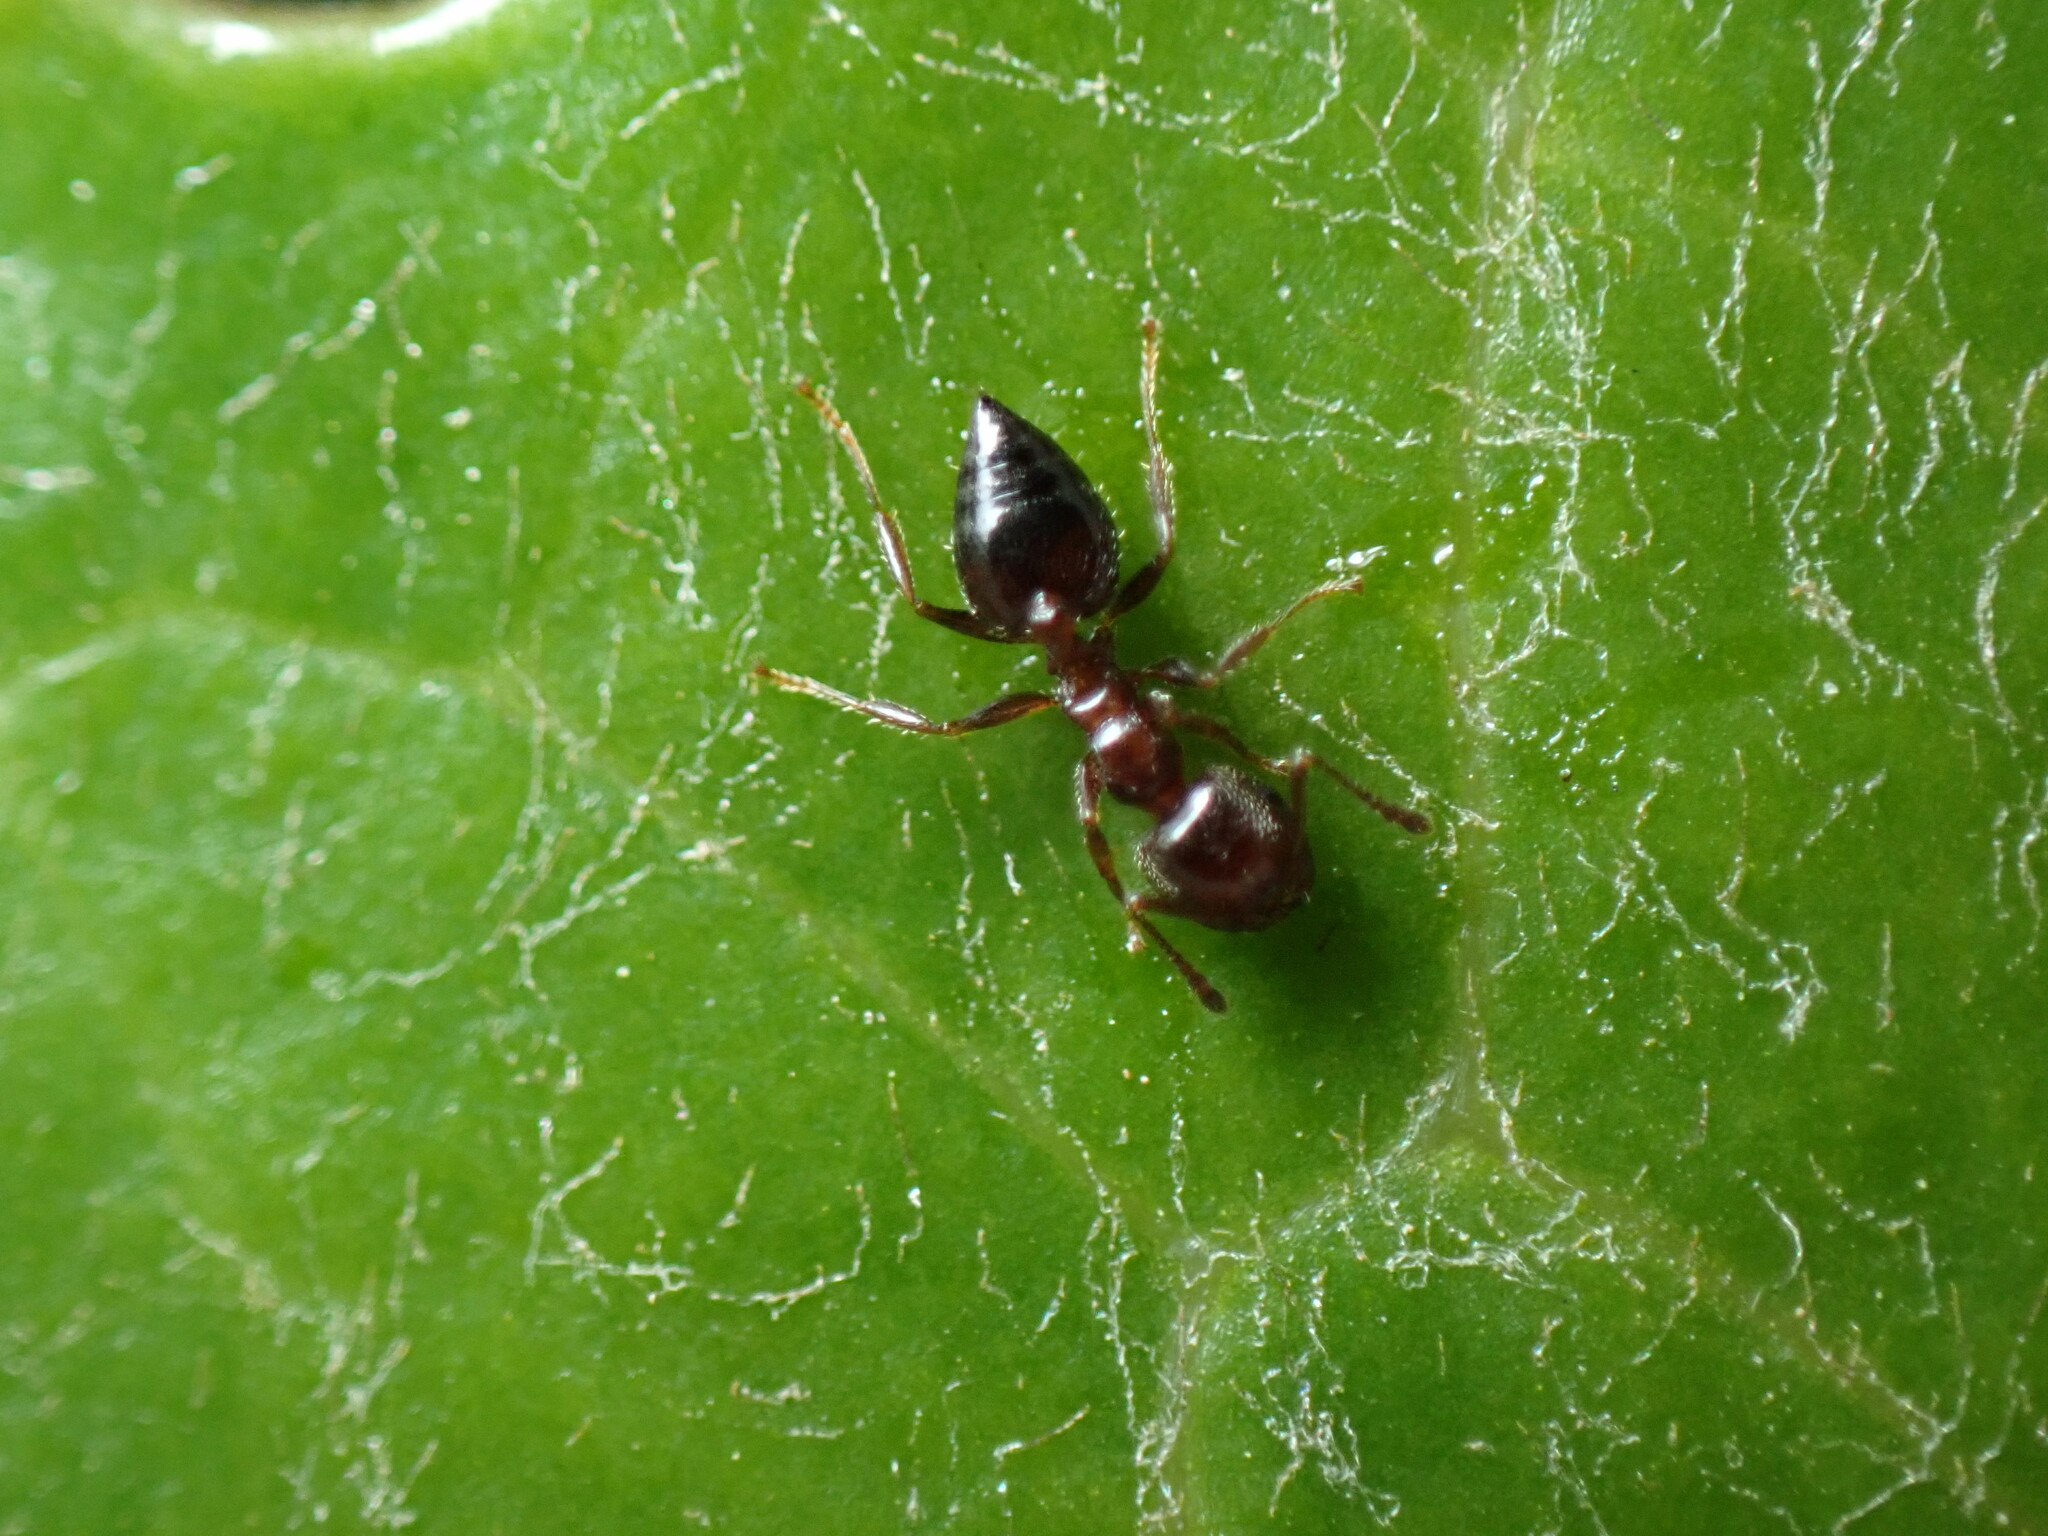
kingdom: Animalia
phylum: Arthropoda
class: Insecta
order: Hymenoptera
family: Formicidae
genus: Crematogaster
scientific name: Crematogaster matsumurai
